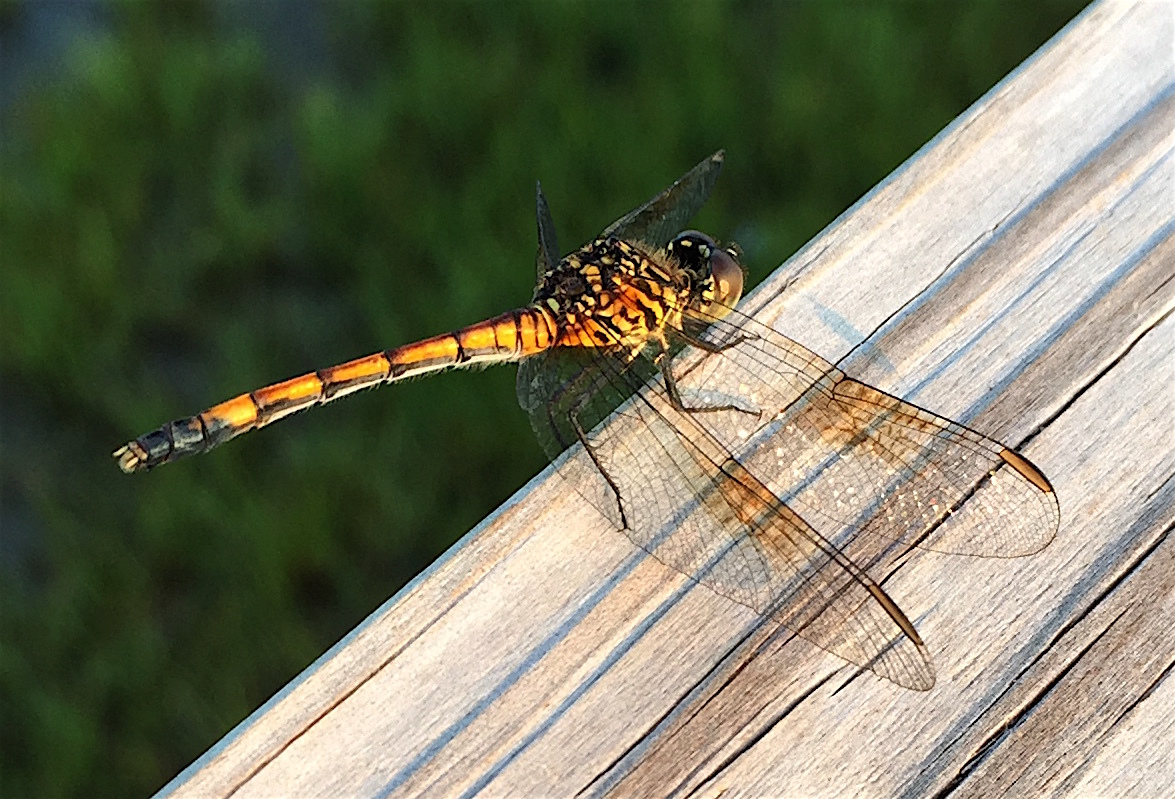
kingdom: Animalia
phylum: Arthropoda
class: Insecta
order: Odonata
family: Libellulidae
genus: Erythrodiplax
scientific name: Erythrodiplax berenice
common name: Seaside dragonlet
